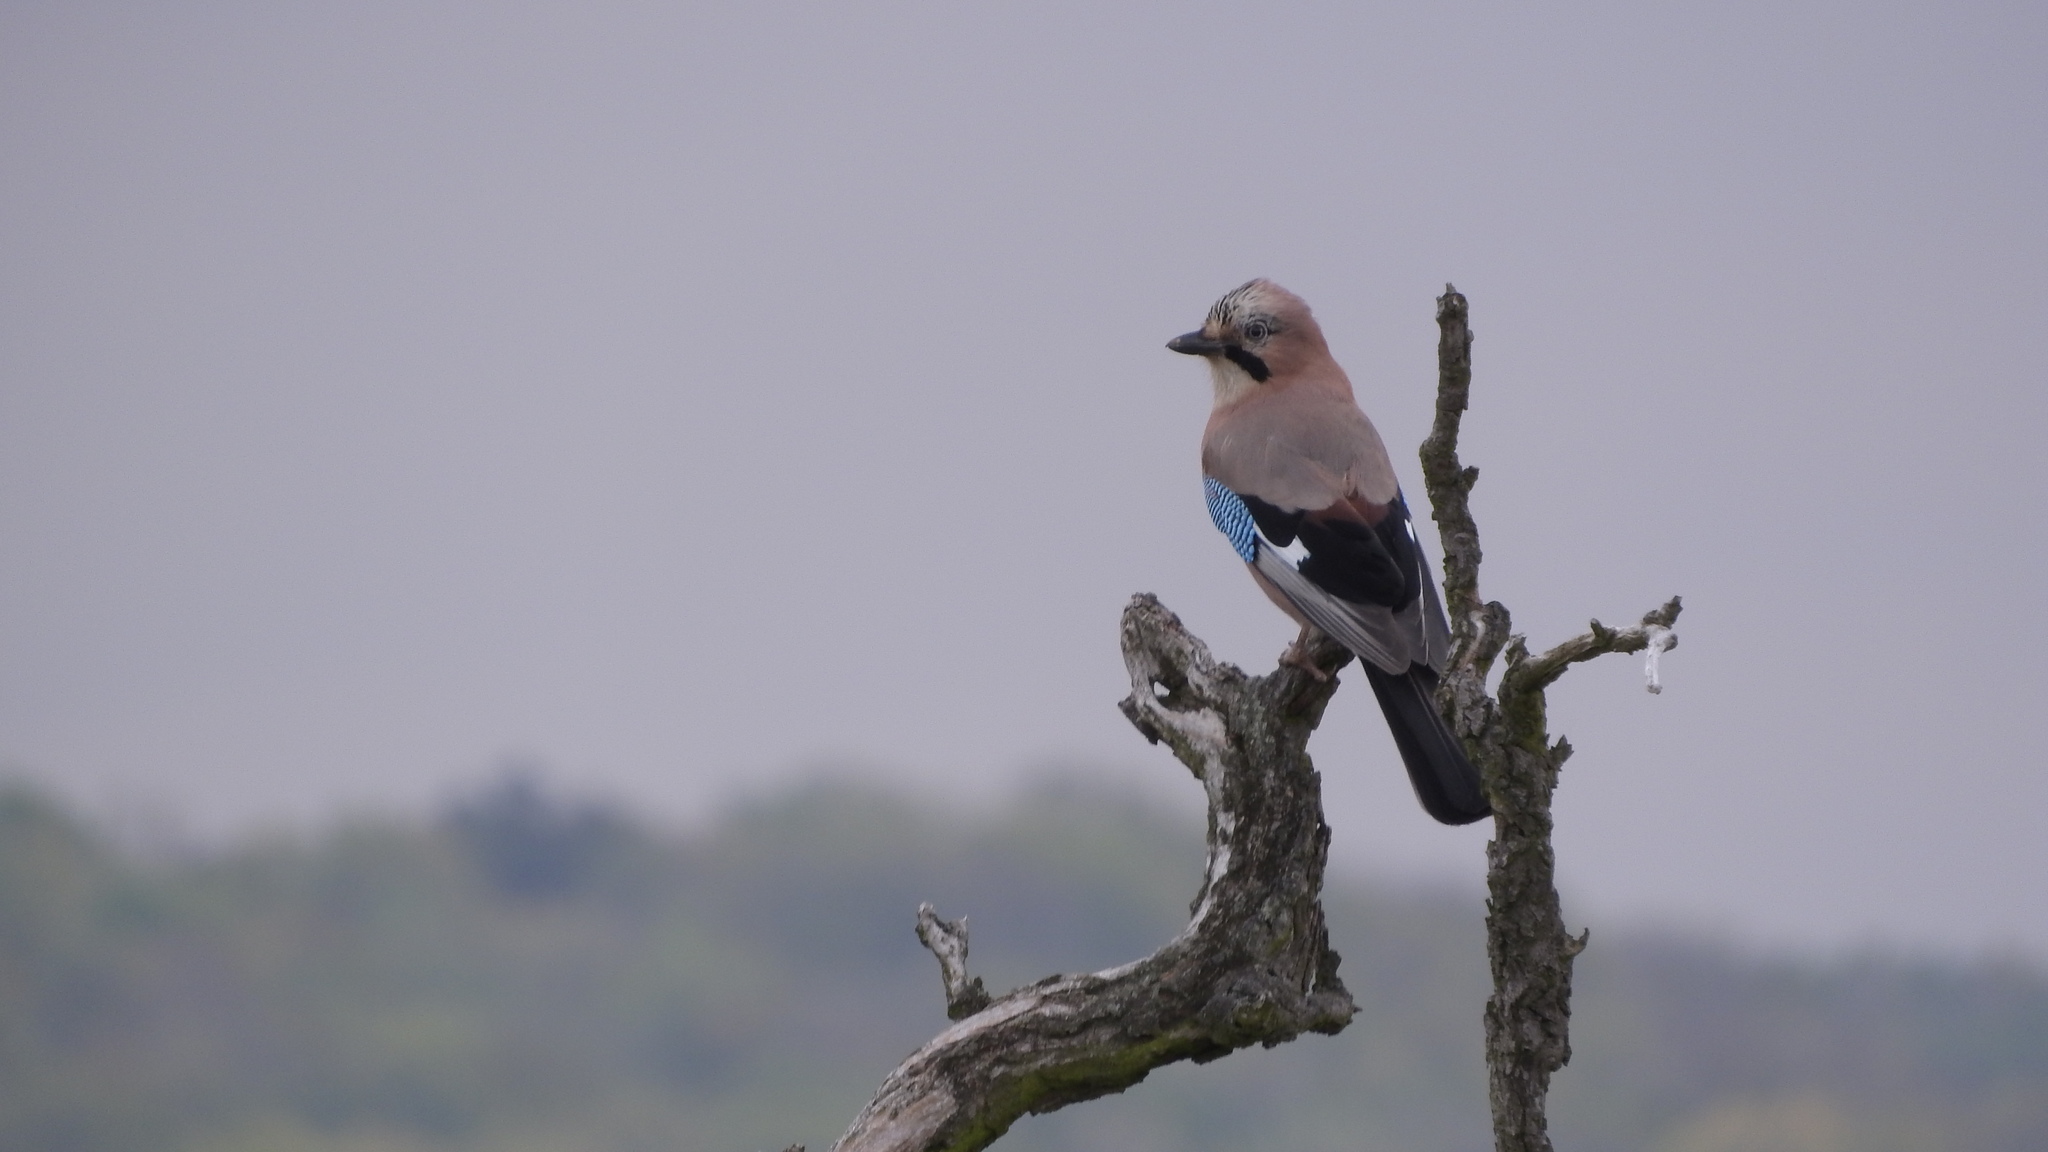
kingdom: Animalia
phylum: Chordata
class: Aves
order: Passeriformes
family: Corvidae
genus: Garrulus
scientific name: Garrulus glandarius
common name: Eurasian jay
